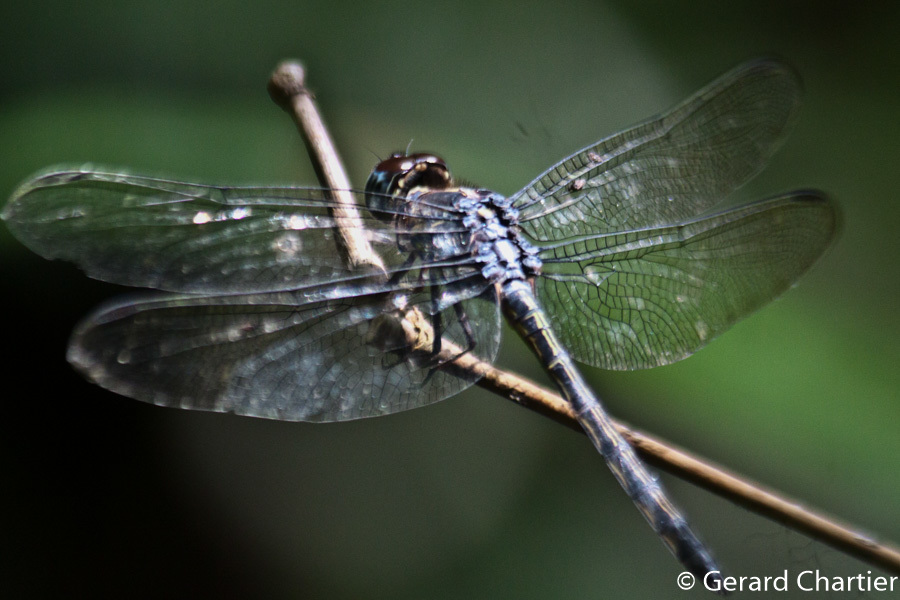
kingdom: Animalia
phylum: Arthropoda
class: Insecta
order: Odonata
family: Libellulidae
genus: Cratilla
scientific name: Cratilla lineata
